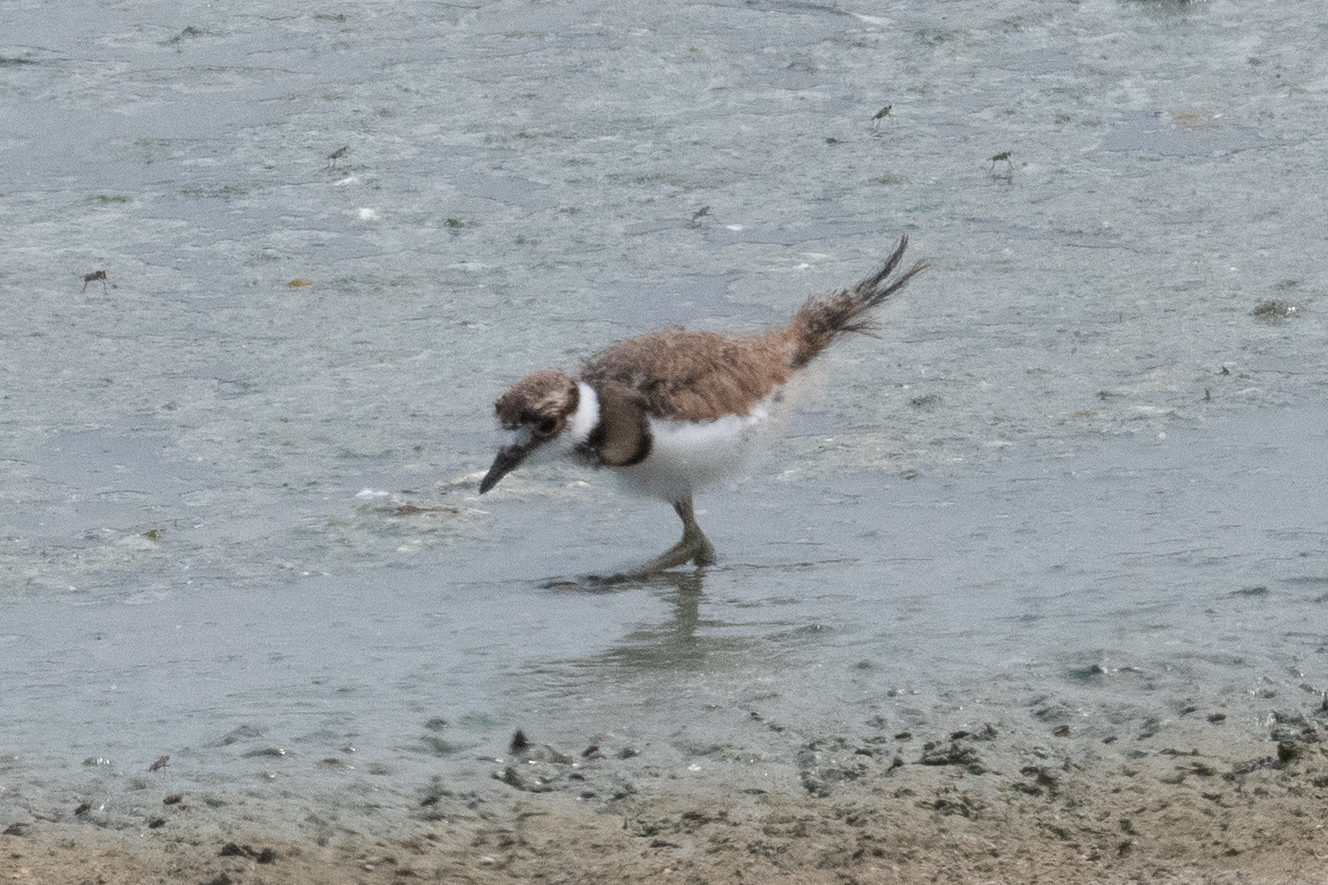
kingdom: Animalia
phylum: Chordata
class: Aves
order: Charadriiformes
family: Charadriidae
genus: Charadrius
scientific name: Charadrius vociferus
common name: Killdeer
